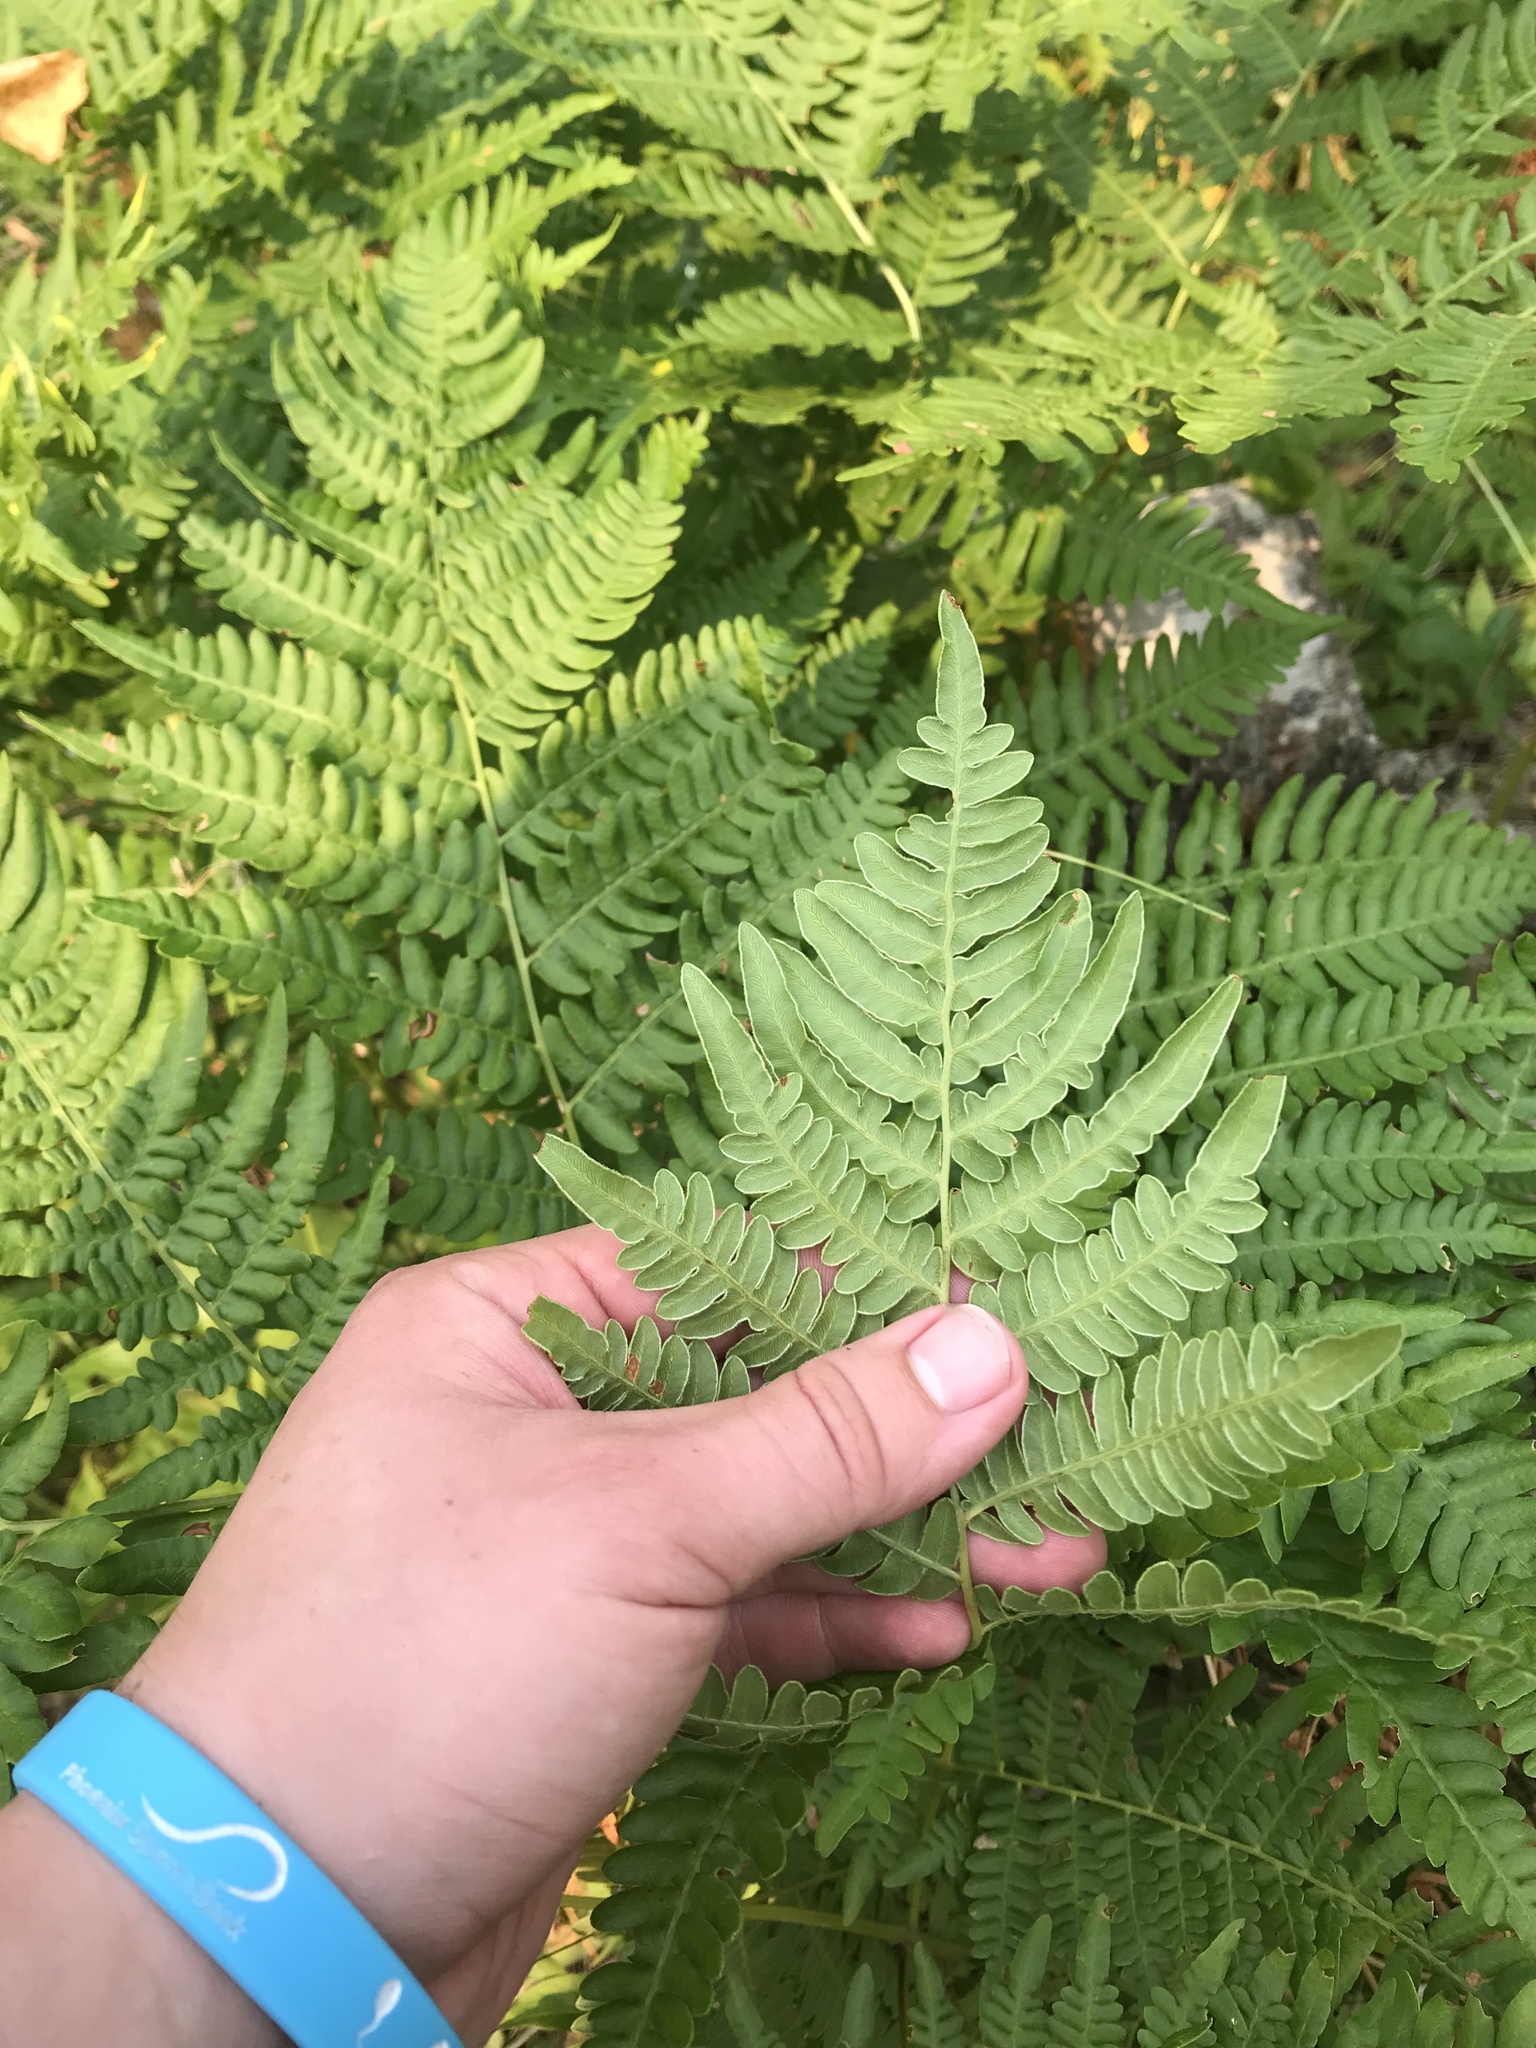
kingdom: Plantae
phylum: Tracheophyta
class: Polypodiopsida
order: Polypodiales
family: Dennstaedtiaceae
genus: Pteridium
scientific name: Pteridium aquilinum
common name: Bracken
